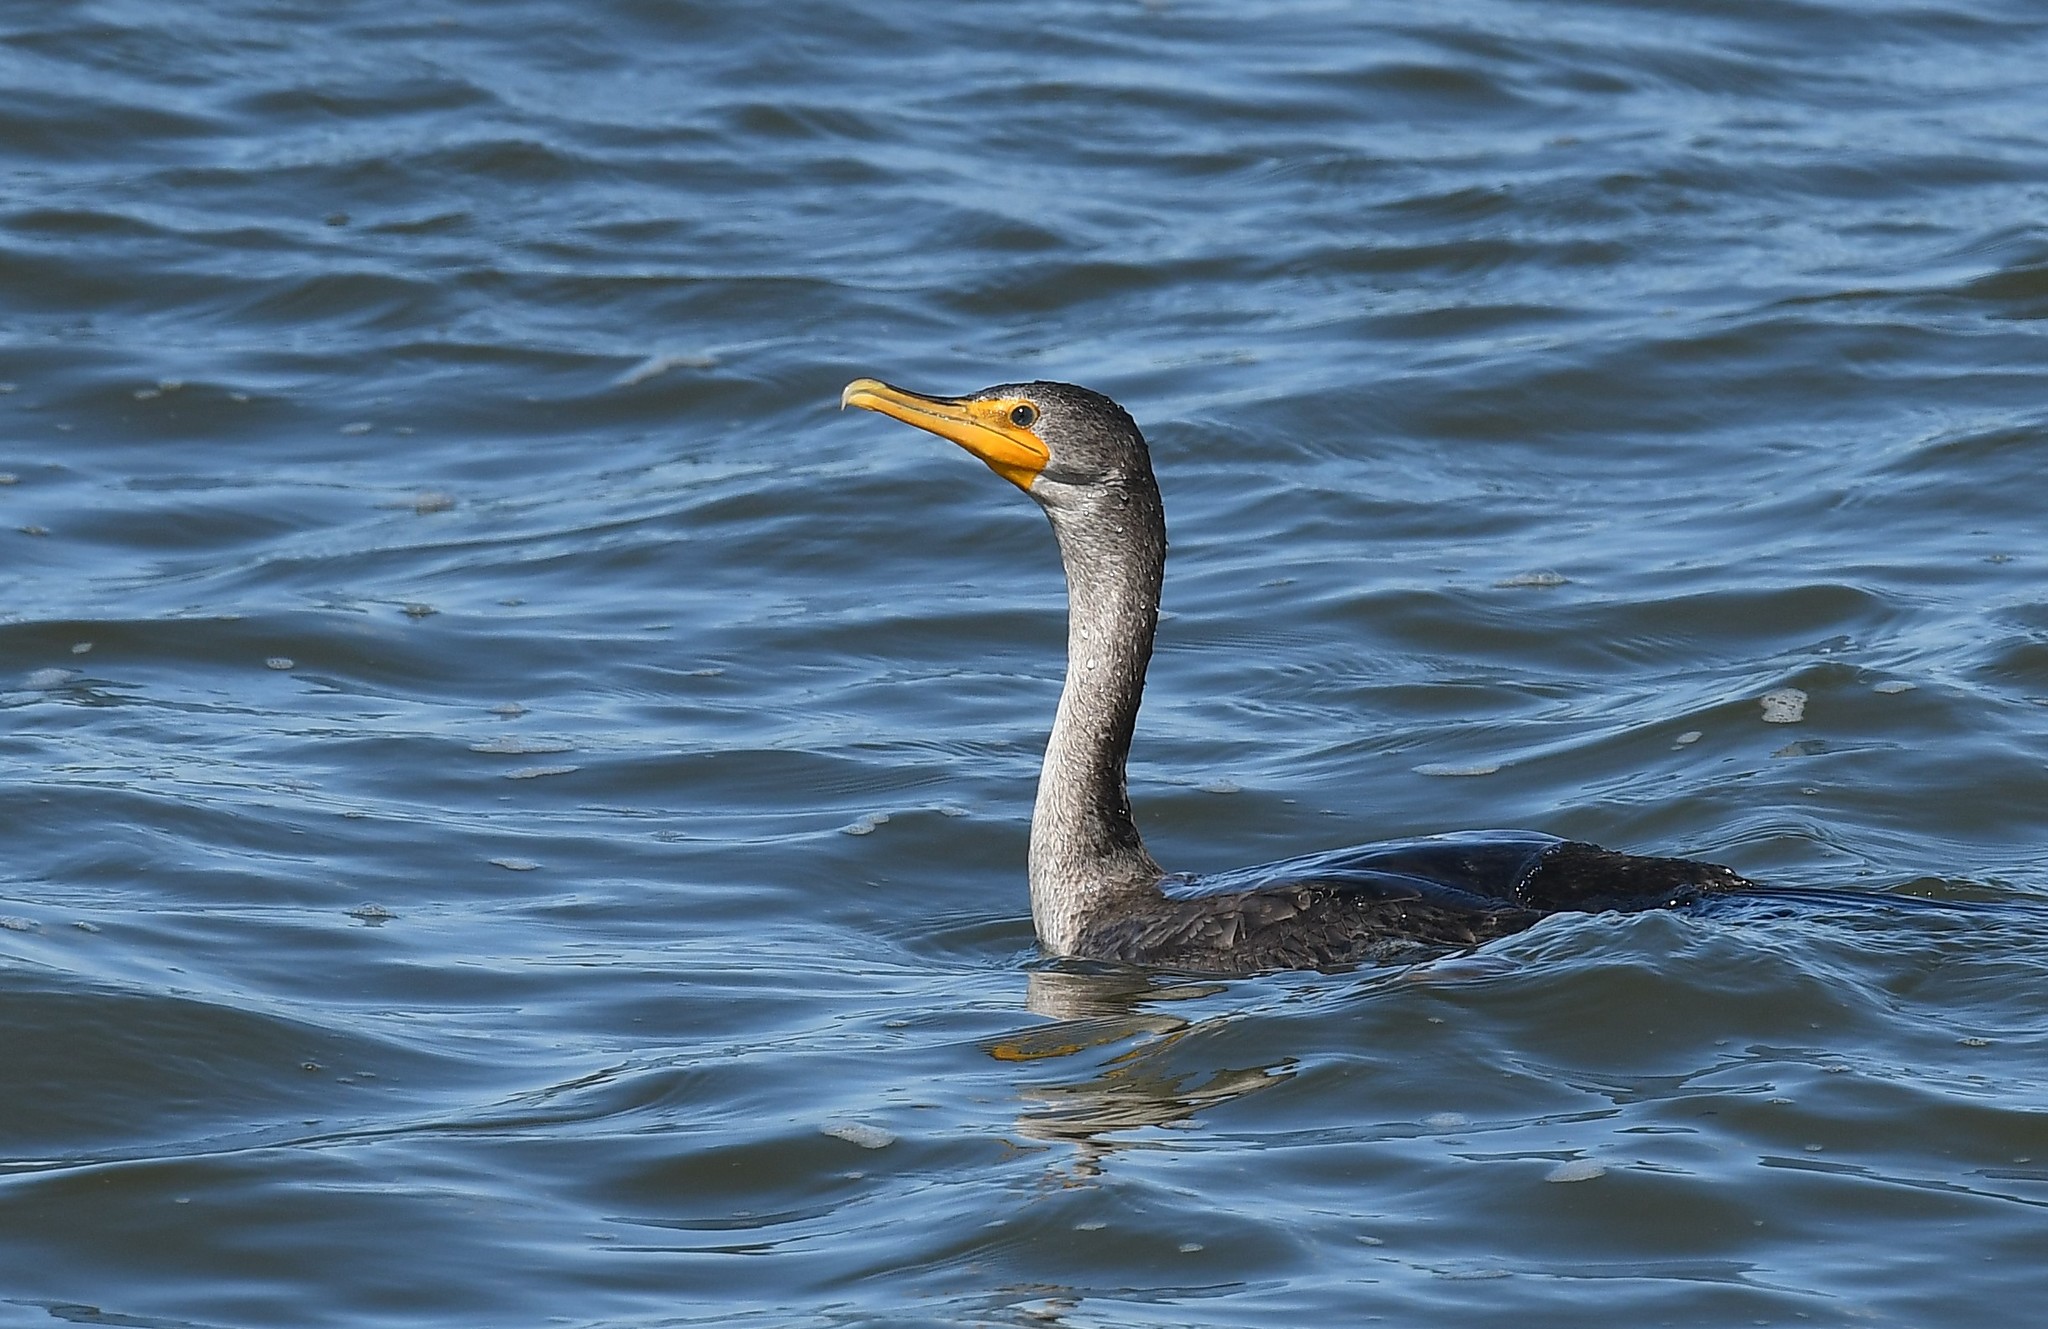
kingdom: Animalia
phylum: Chordata
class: Aves
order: Suliformes
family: Phalacrocoracidae
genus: Phalacrocorax
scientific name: Phalacrocorax auritus
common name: Double-crested cormorant
